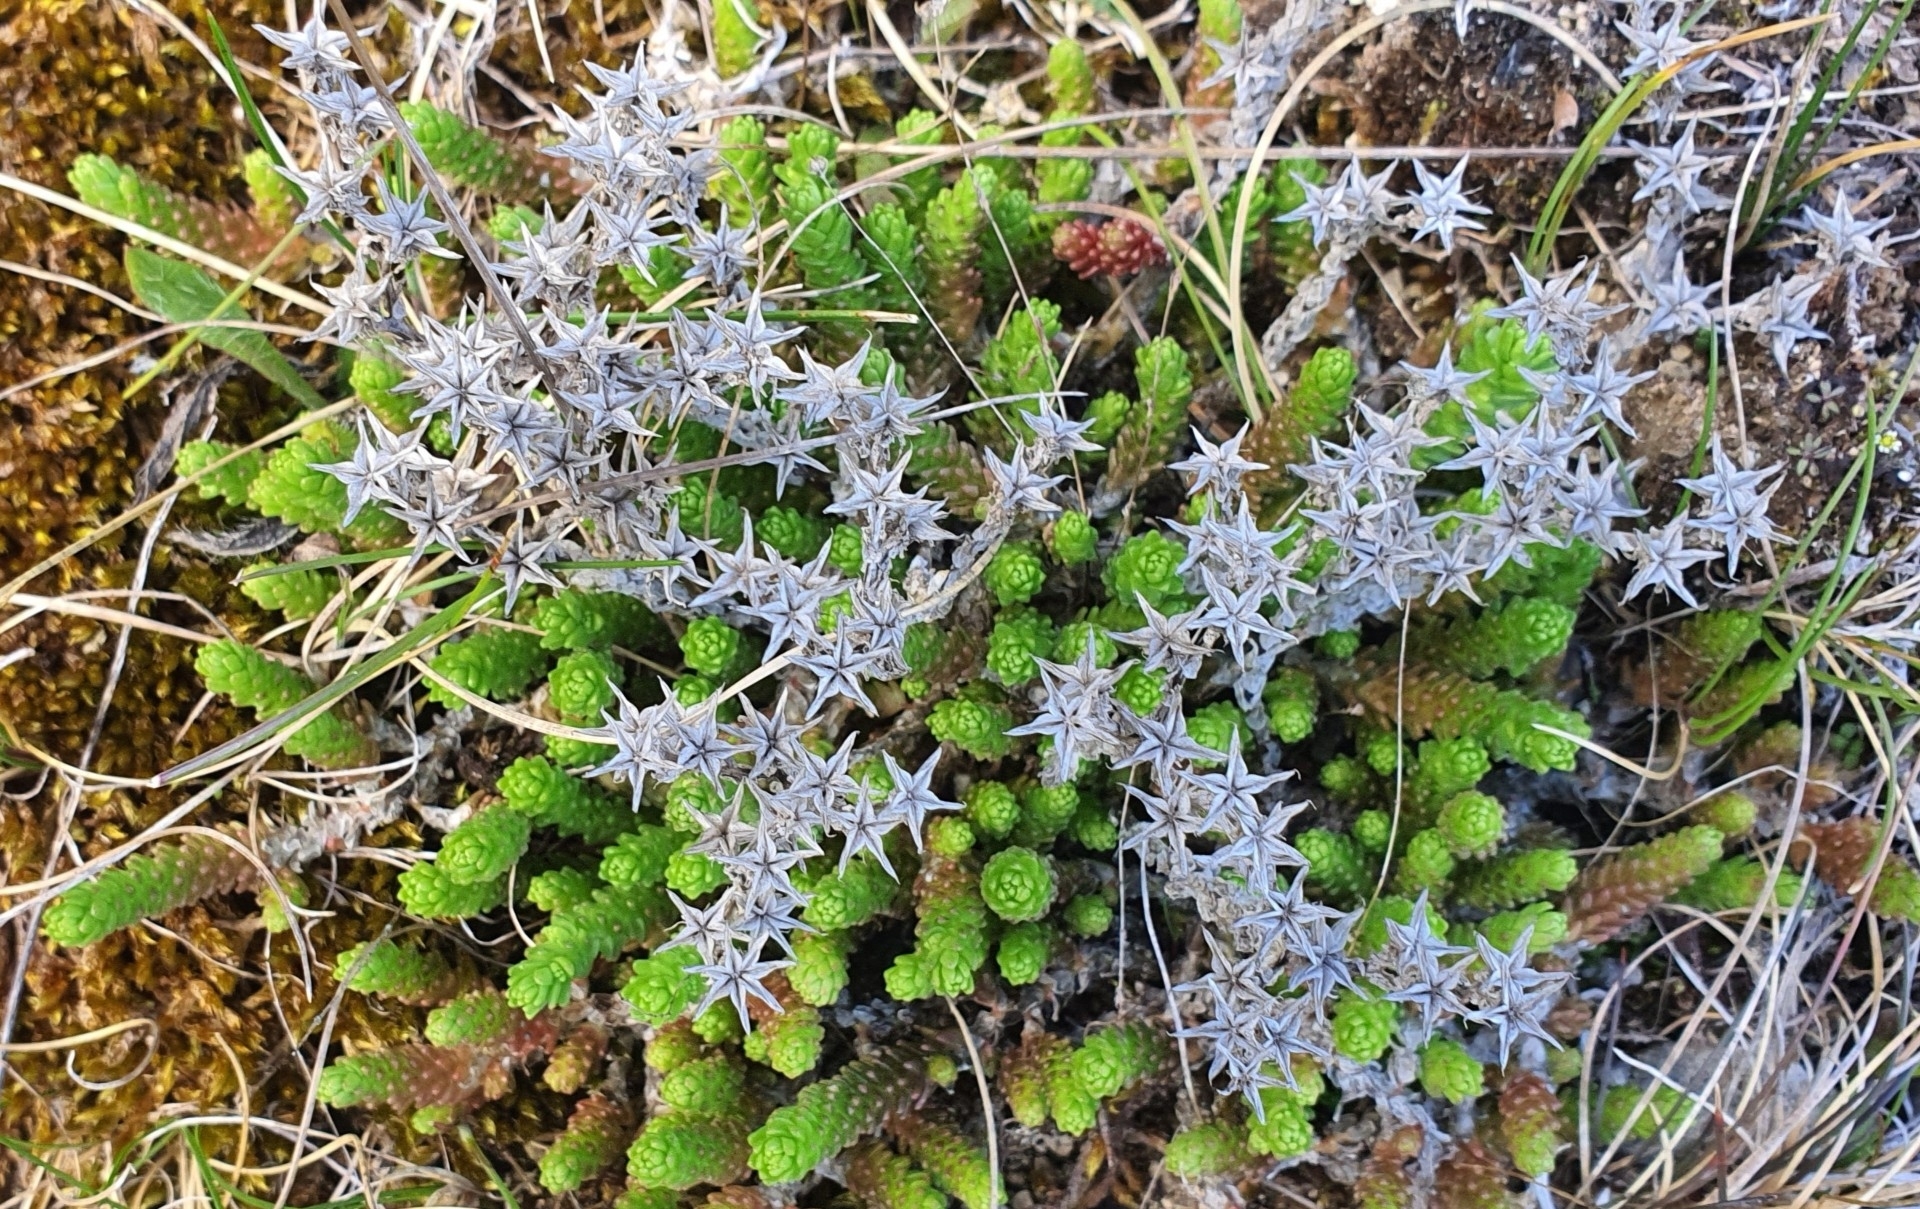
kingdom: Plantae
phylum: Tracheophyta
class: Magnoliopsida
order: Saxifragales
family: Crassulaceae
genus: Sedum
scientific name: Sedum acre
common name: Biting stonecrop
